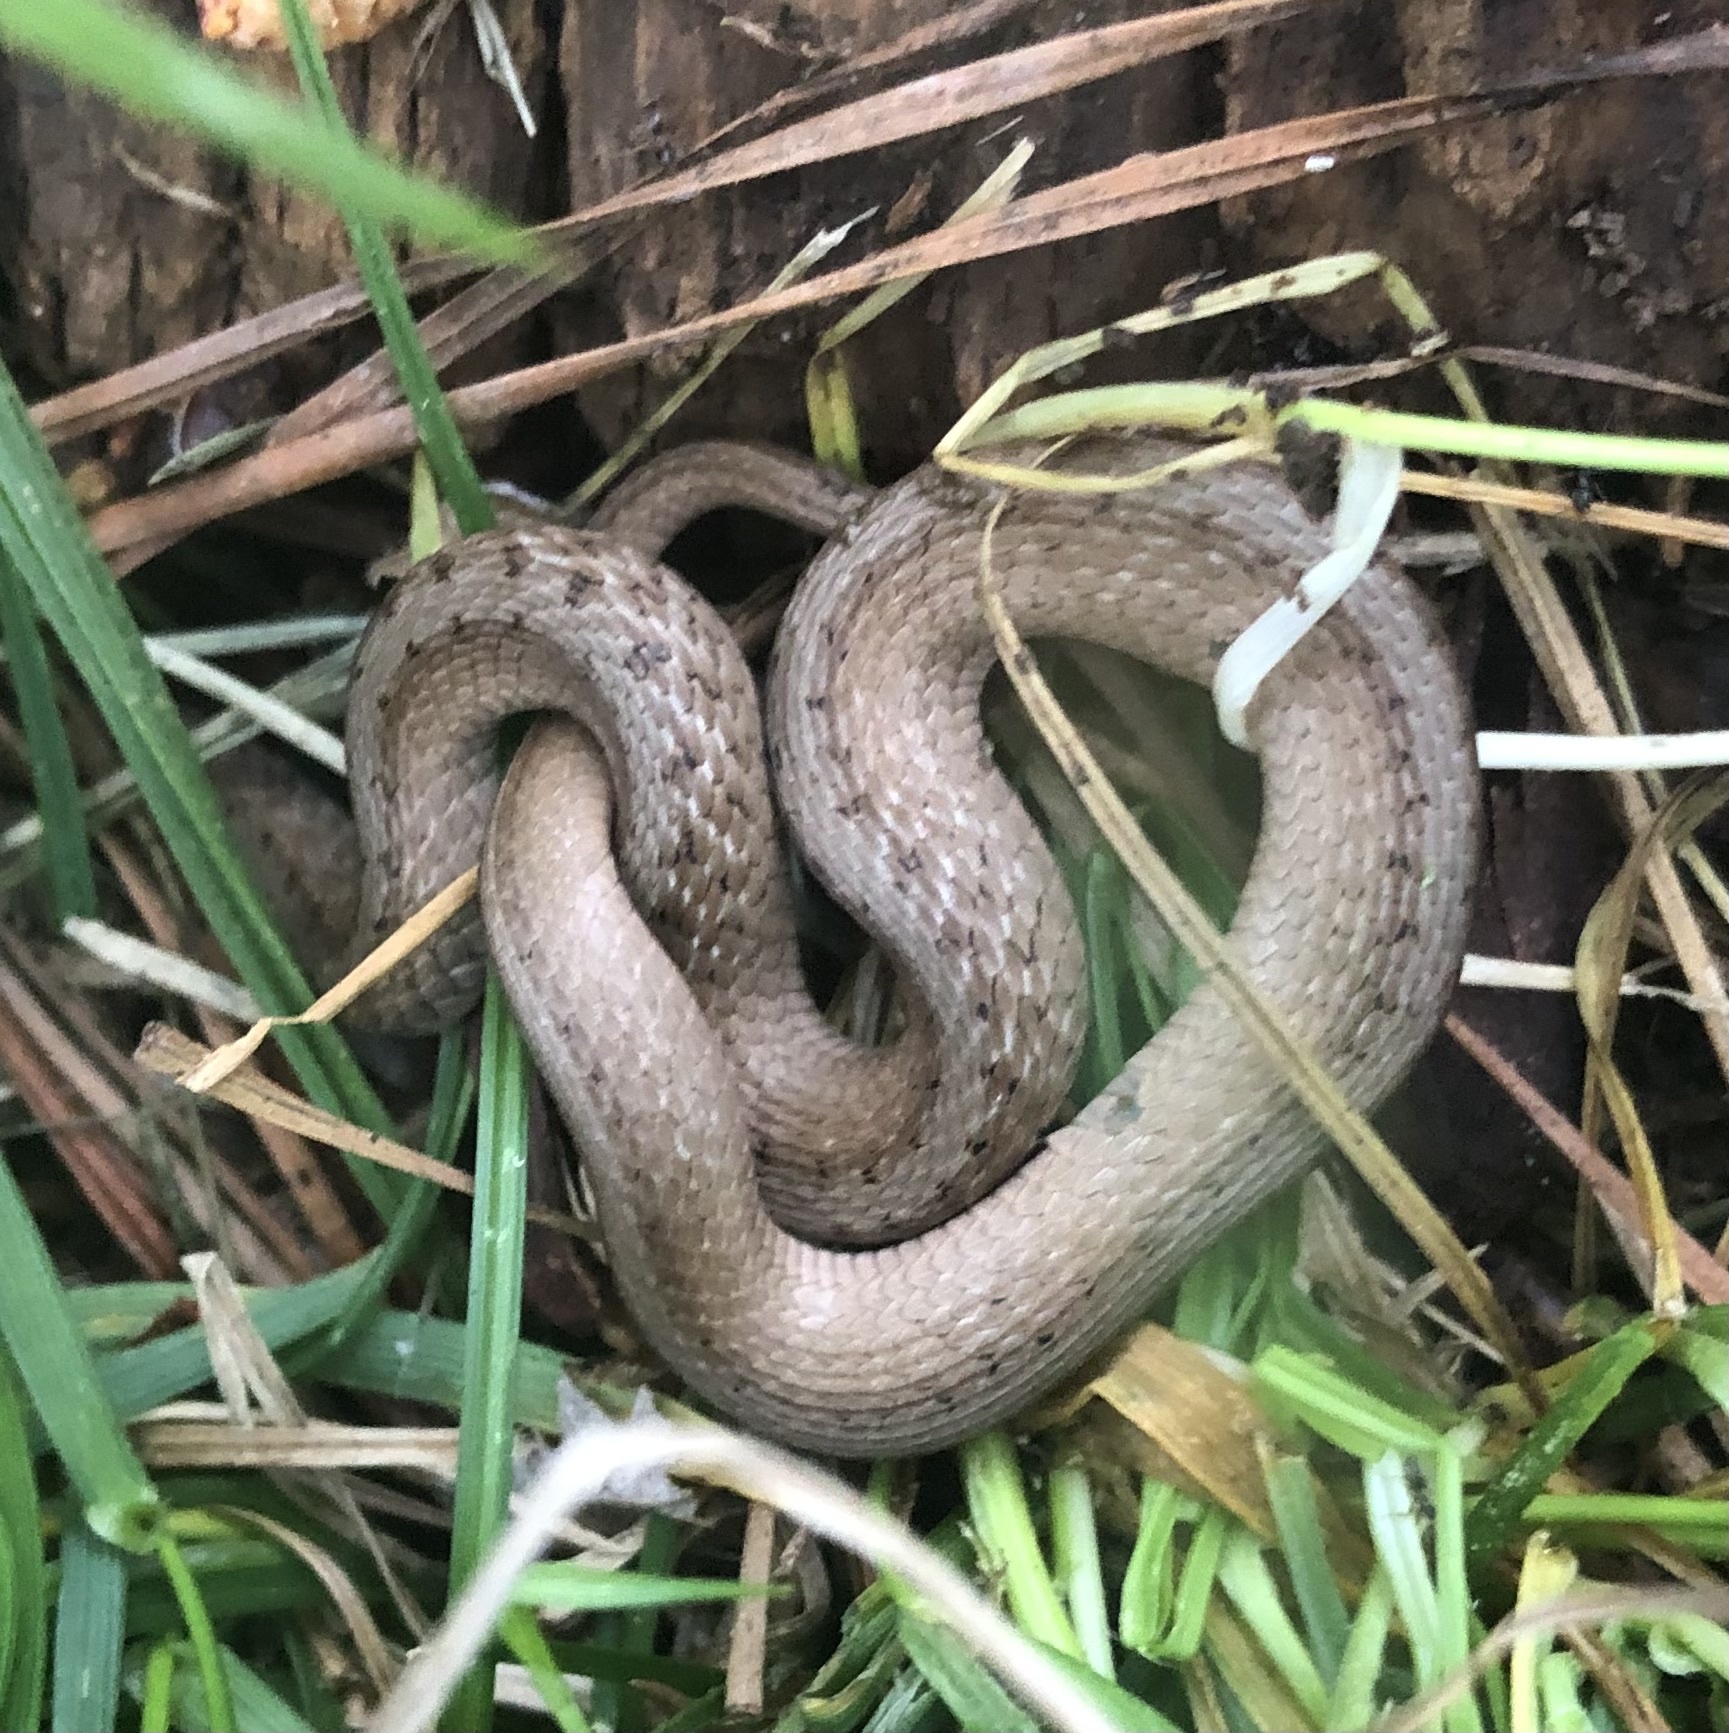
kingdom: Animalia
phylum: Chordata
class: Squamata
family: Colubridae
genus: Storeria
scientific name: Storeria dekayi
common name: (dekay’s) brown snake
